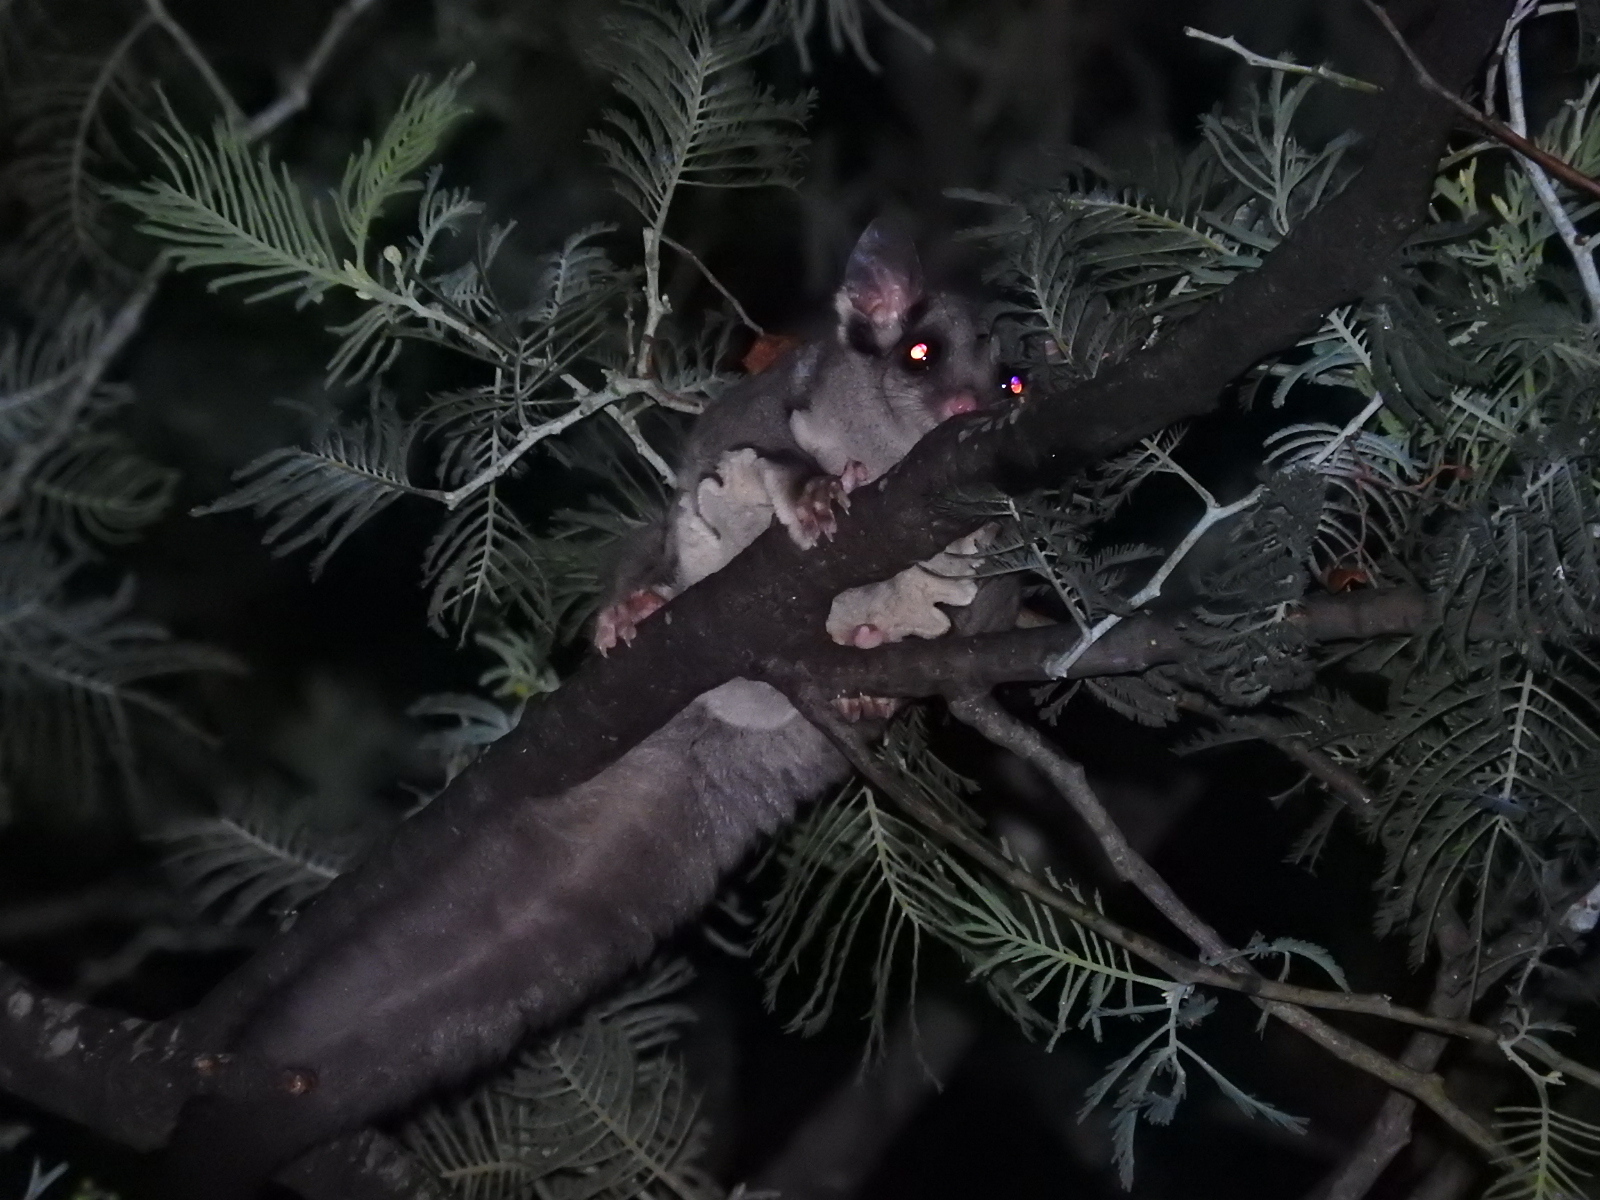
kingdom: Animalia
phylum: Chordata
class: Mammalia
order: Diprotodontia
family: Petauridae
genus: Petaurus
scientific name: Petaurus breviceps
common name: Sugar glider
